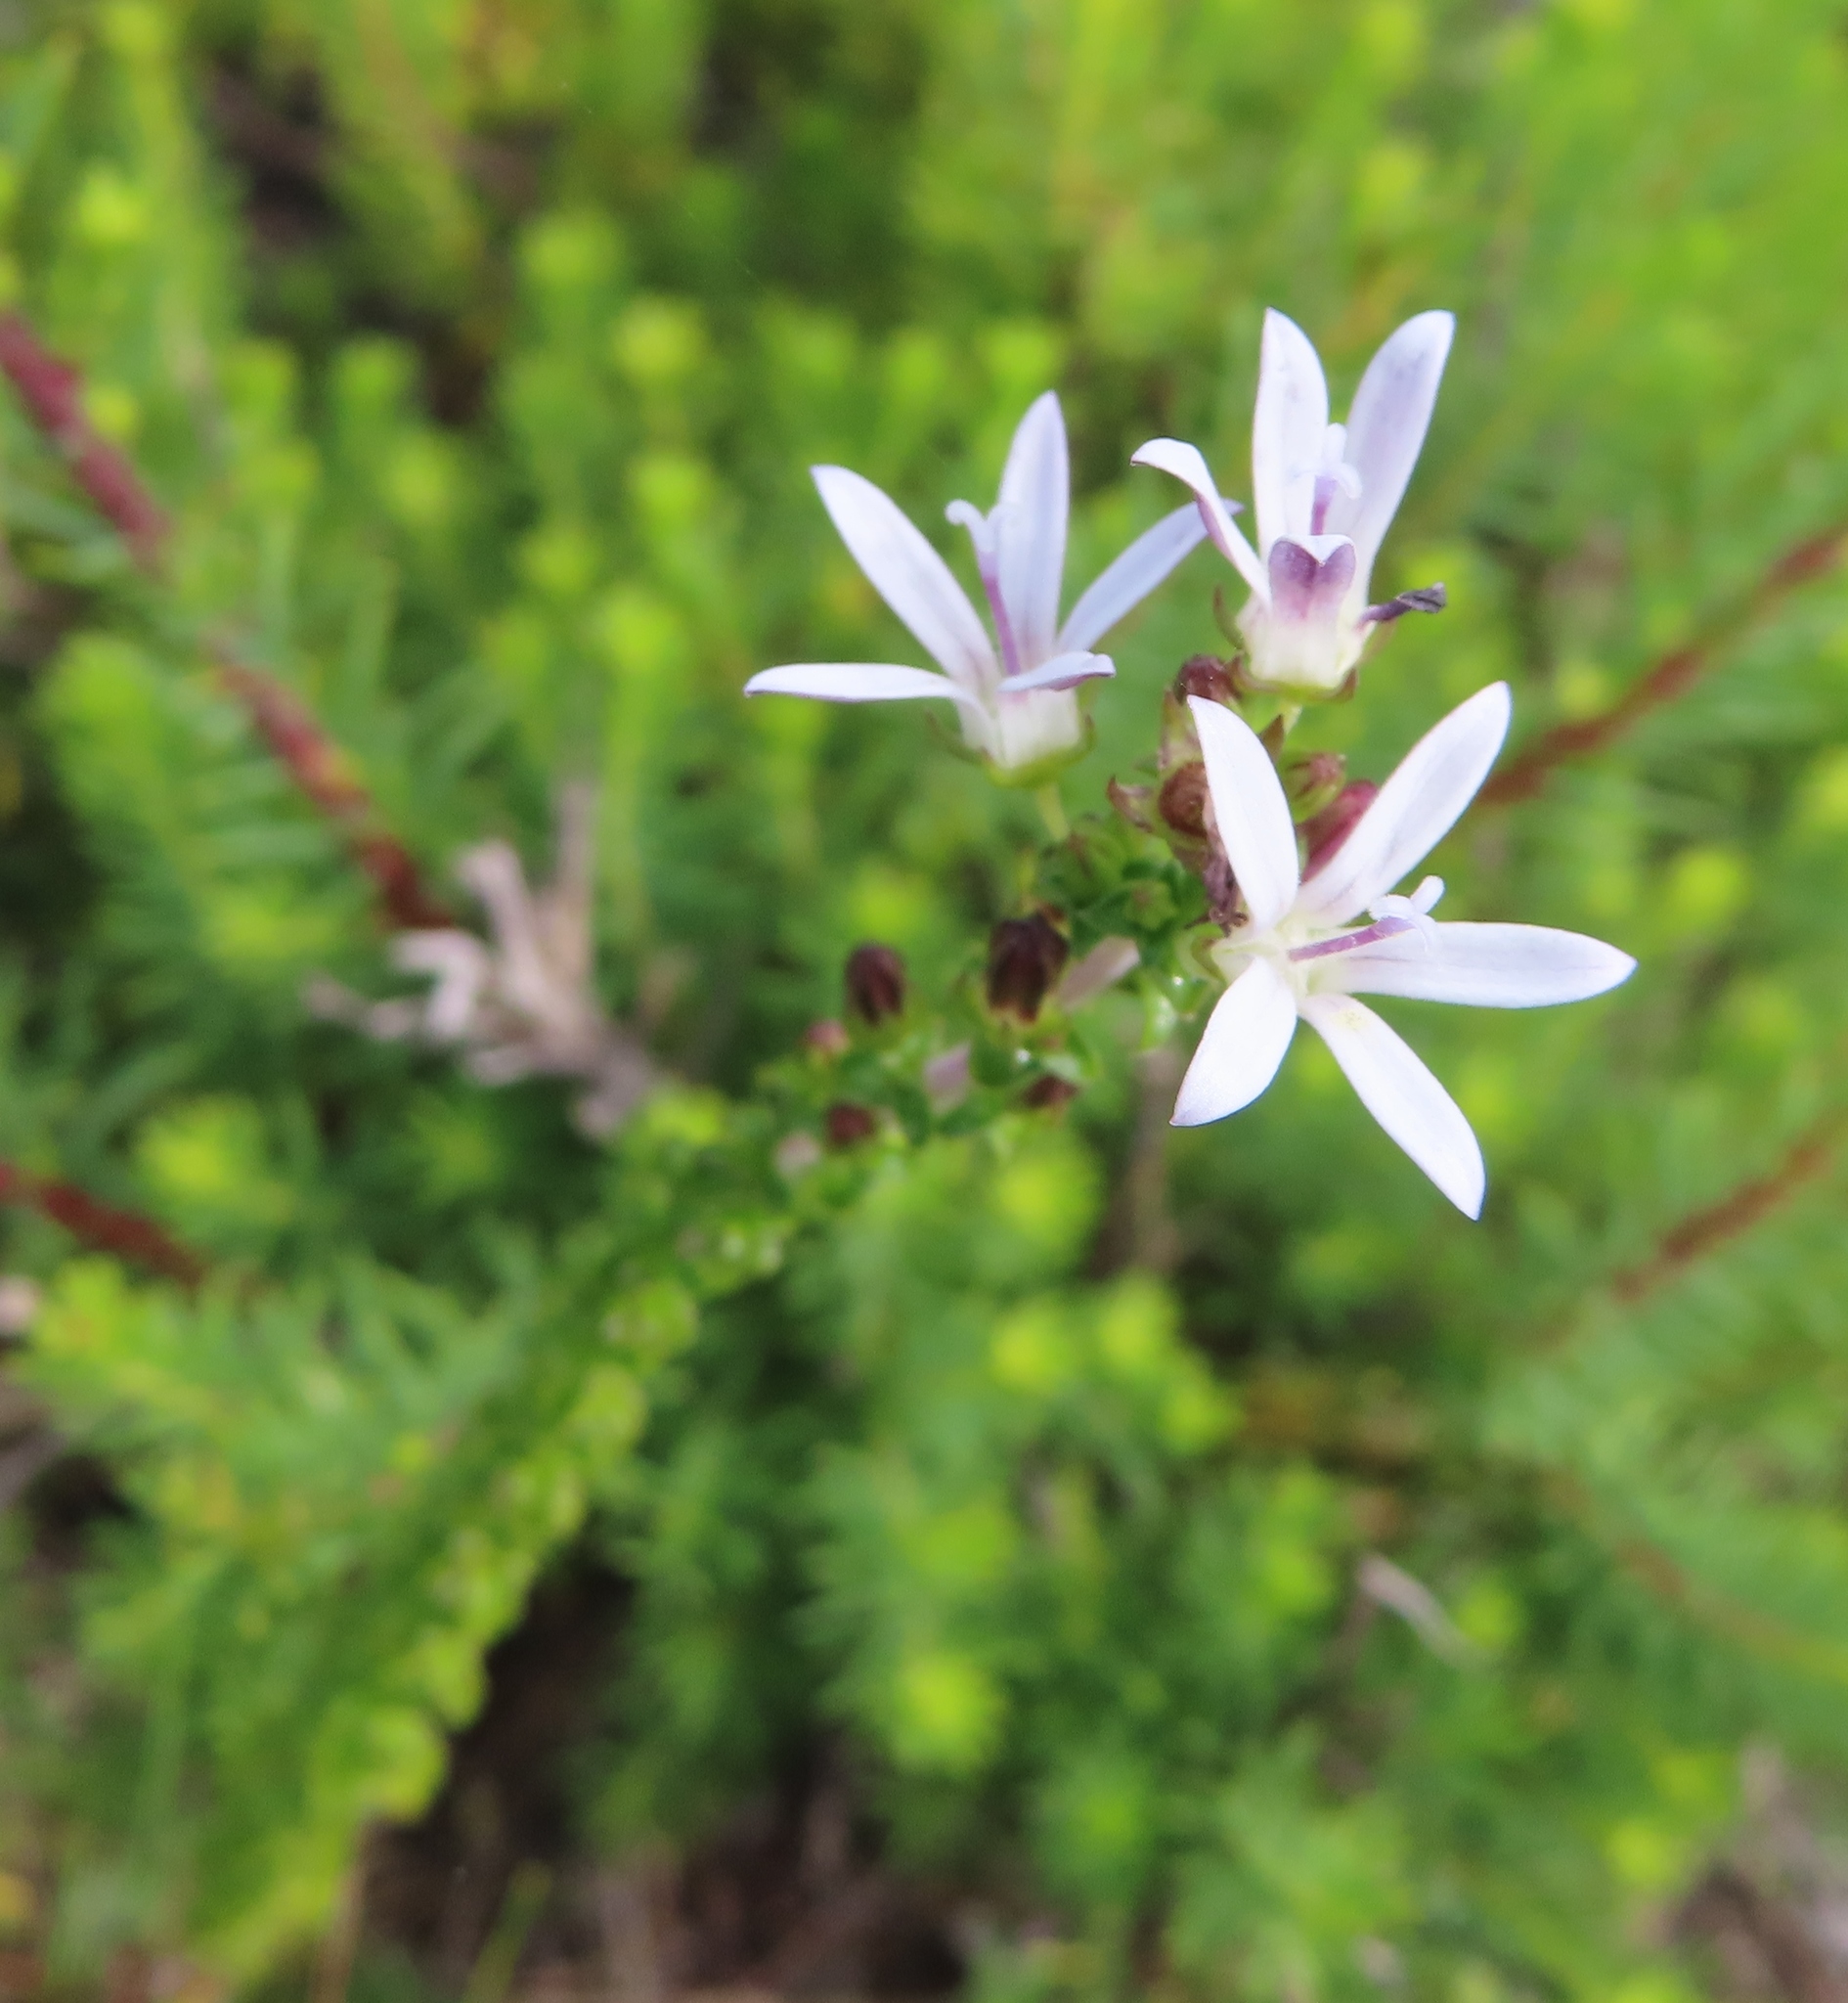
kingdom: Plantae
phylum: Tracheophyta
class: Magnoliopsida
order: Asterales
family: Campanulaceae
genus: Wahlenbergia
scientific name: Wahlenbergia tenella
